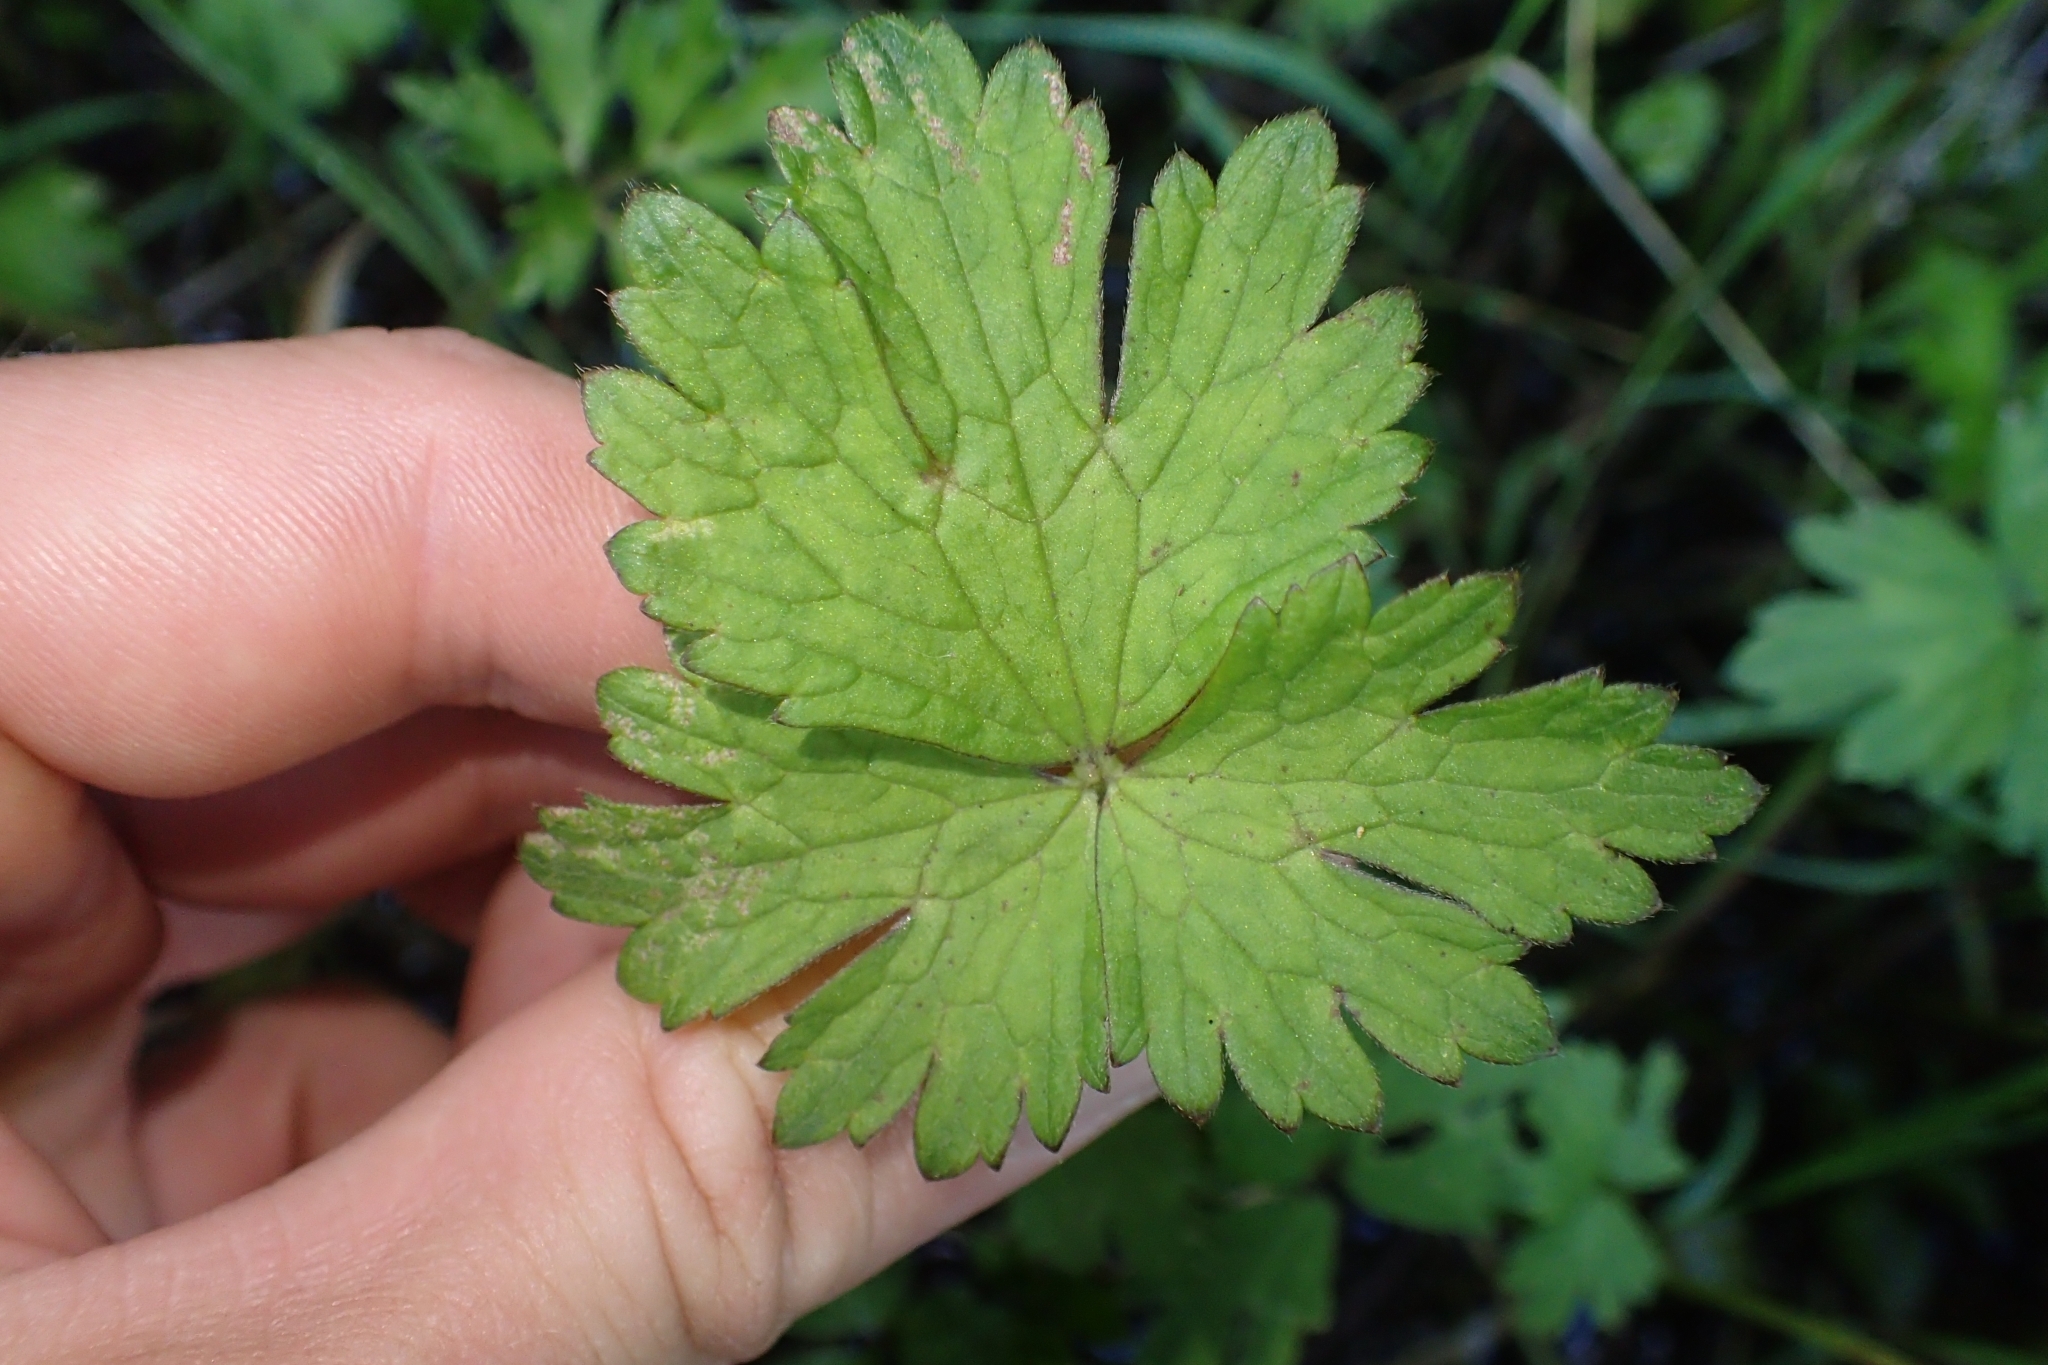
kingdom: Plantae
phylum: Tracheophyta
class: Magnoliopsida
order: Ranunculales
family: Ranunculaceae
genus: Ranunculus
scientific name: Ranunculus repens
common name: Creeping buttercup
